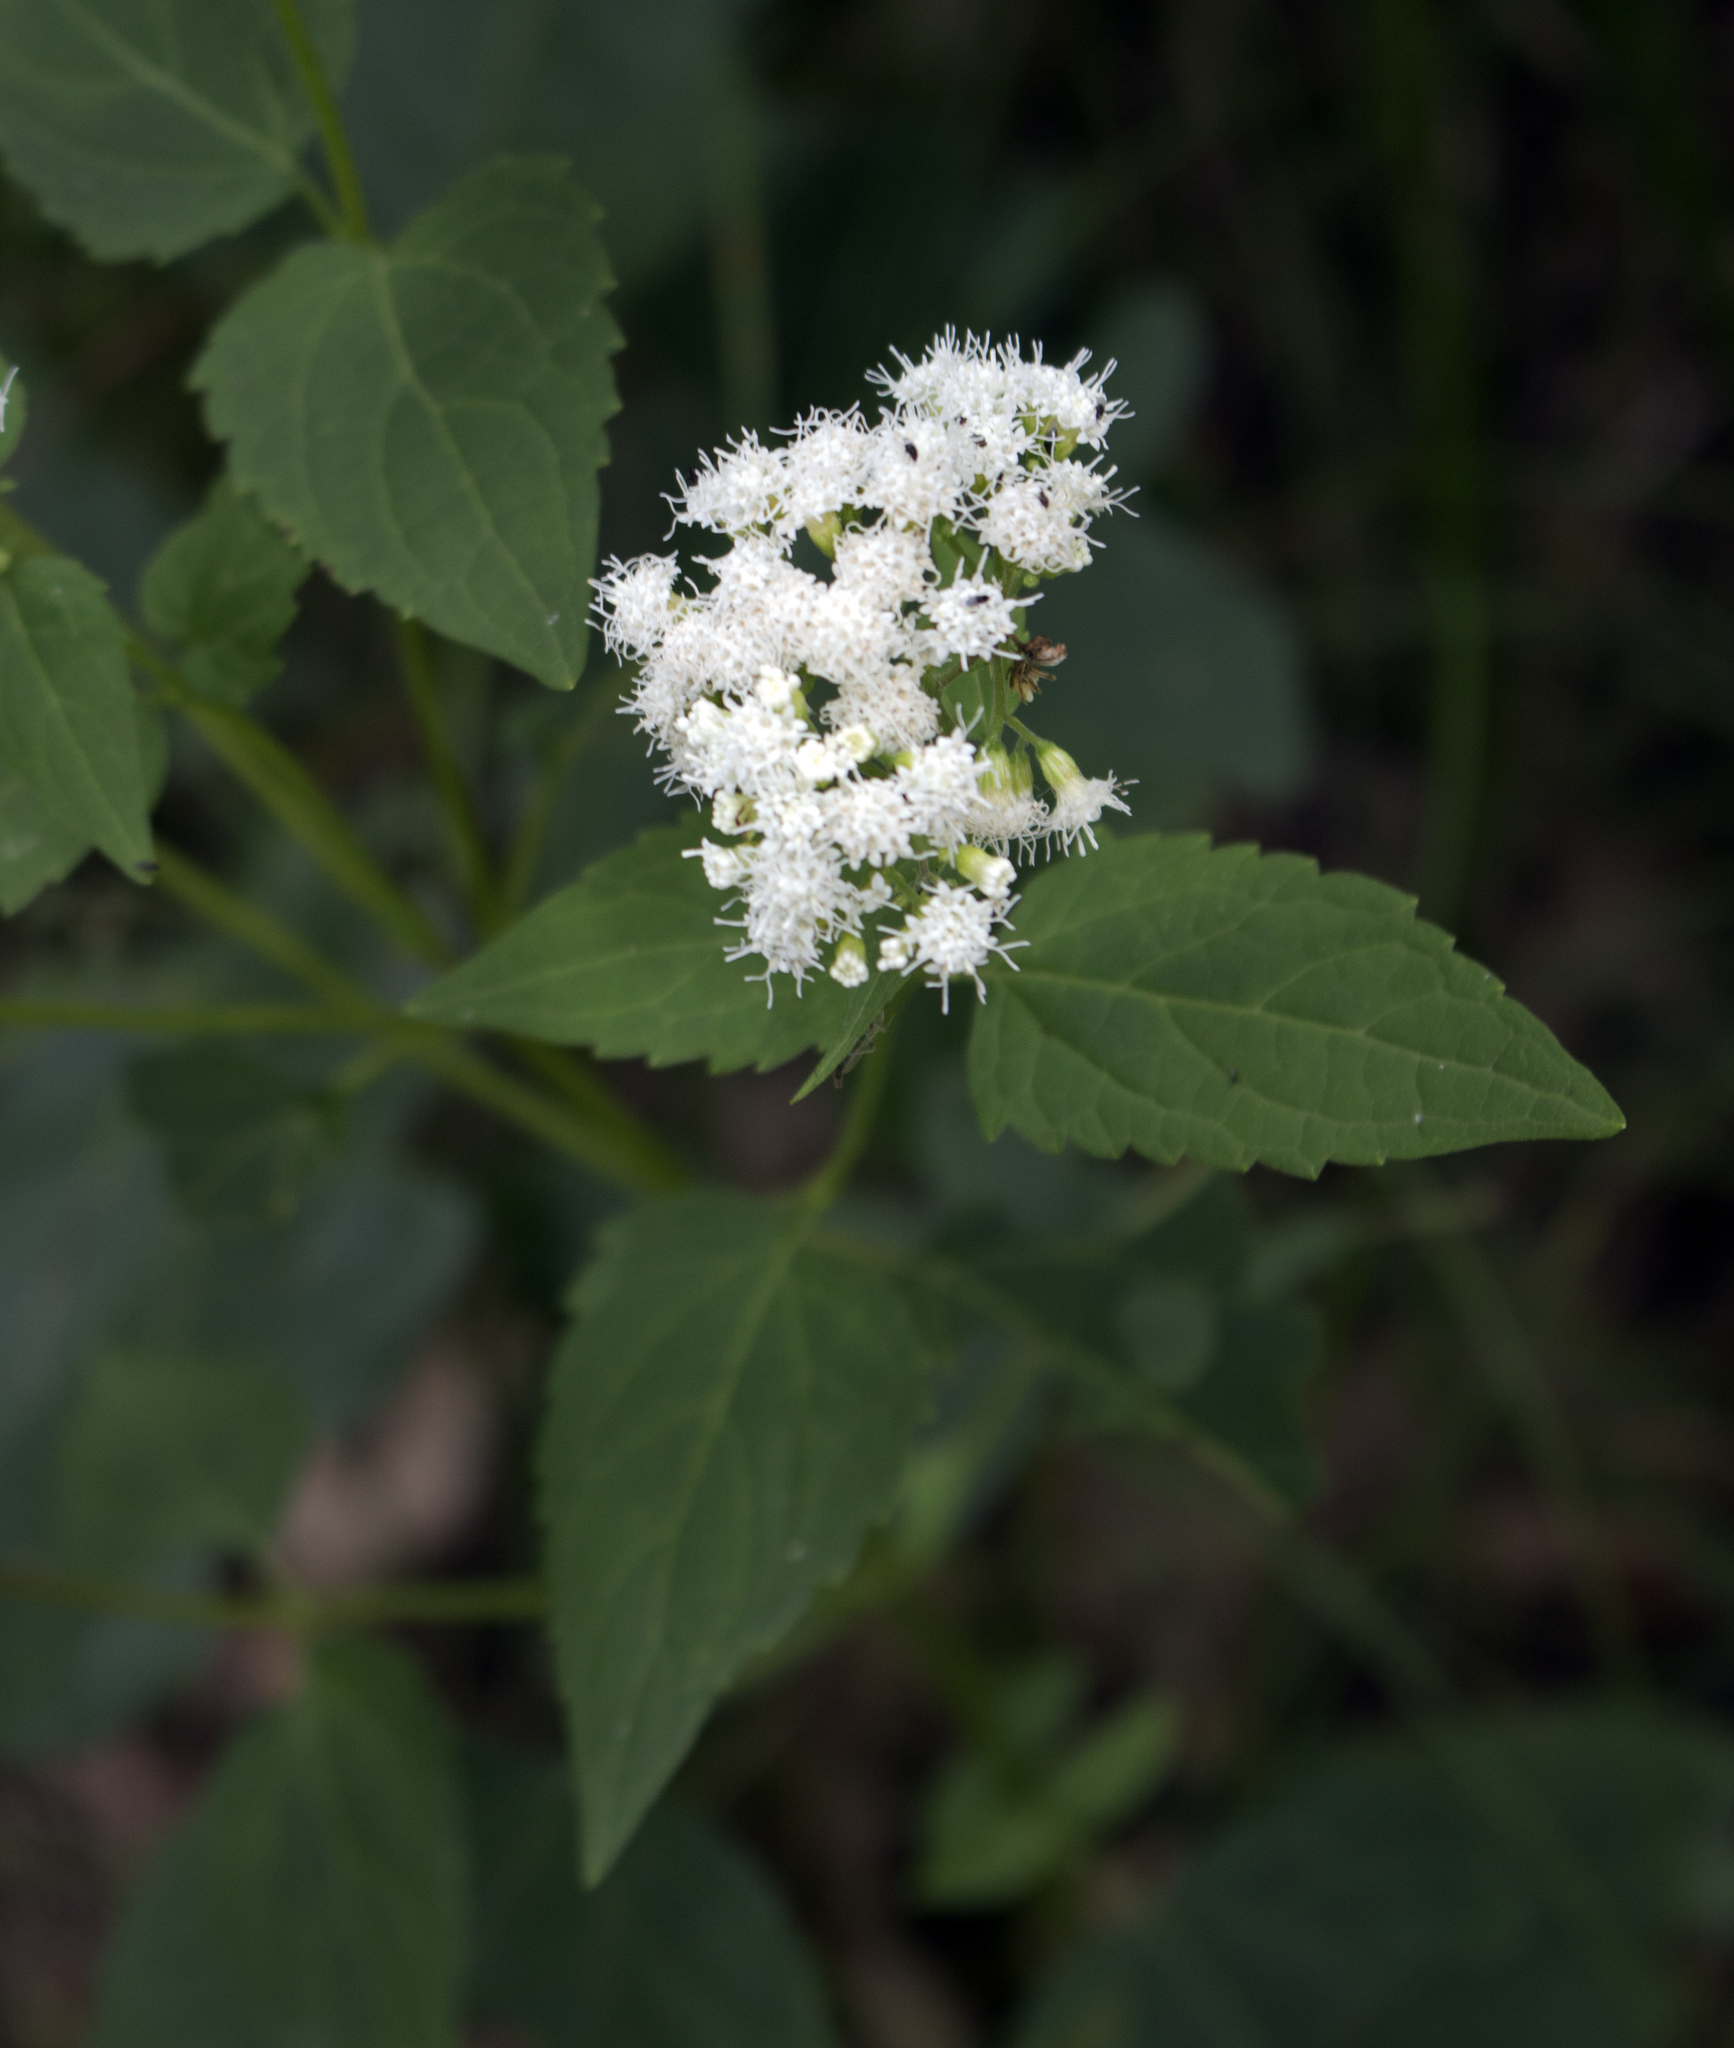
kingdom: Plantae
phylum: Tracheophyta
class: Magnoliopsida
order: Asterales
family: Asteraceae
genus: Ageratina
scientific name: Ageratina altissima
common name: White snakeroot
